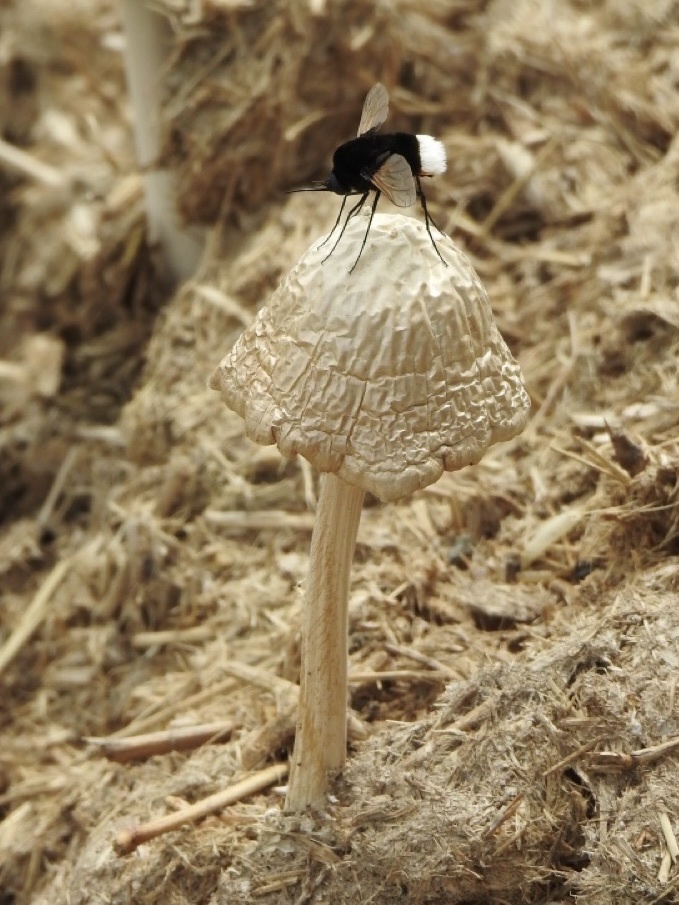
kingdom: Animalia
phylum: Arthropoda
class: Insecta
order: Diptera
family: Bombyliidae
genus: Bombomyia
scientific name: Bombomyia discoidea
